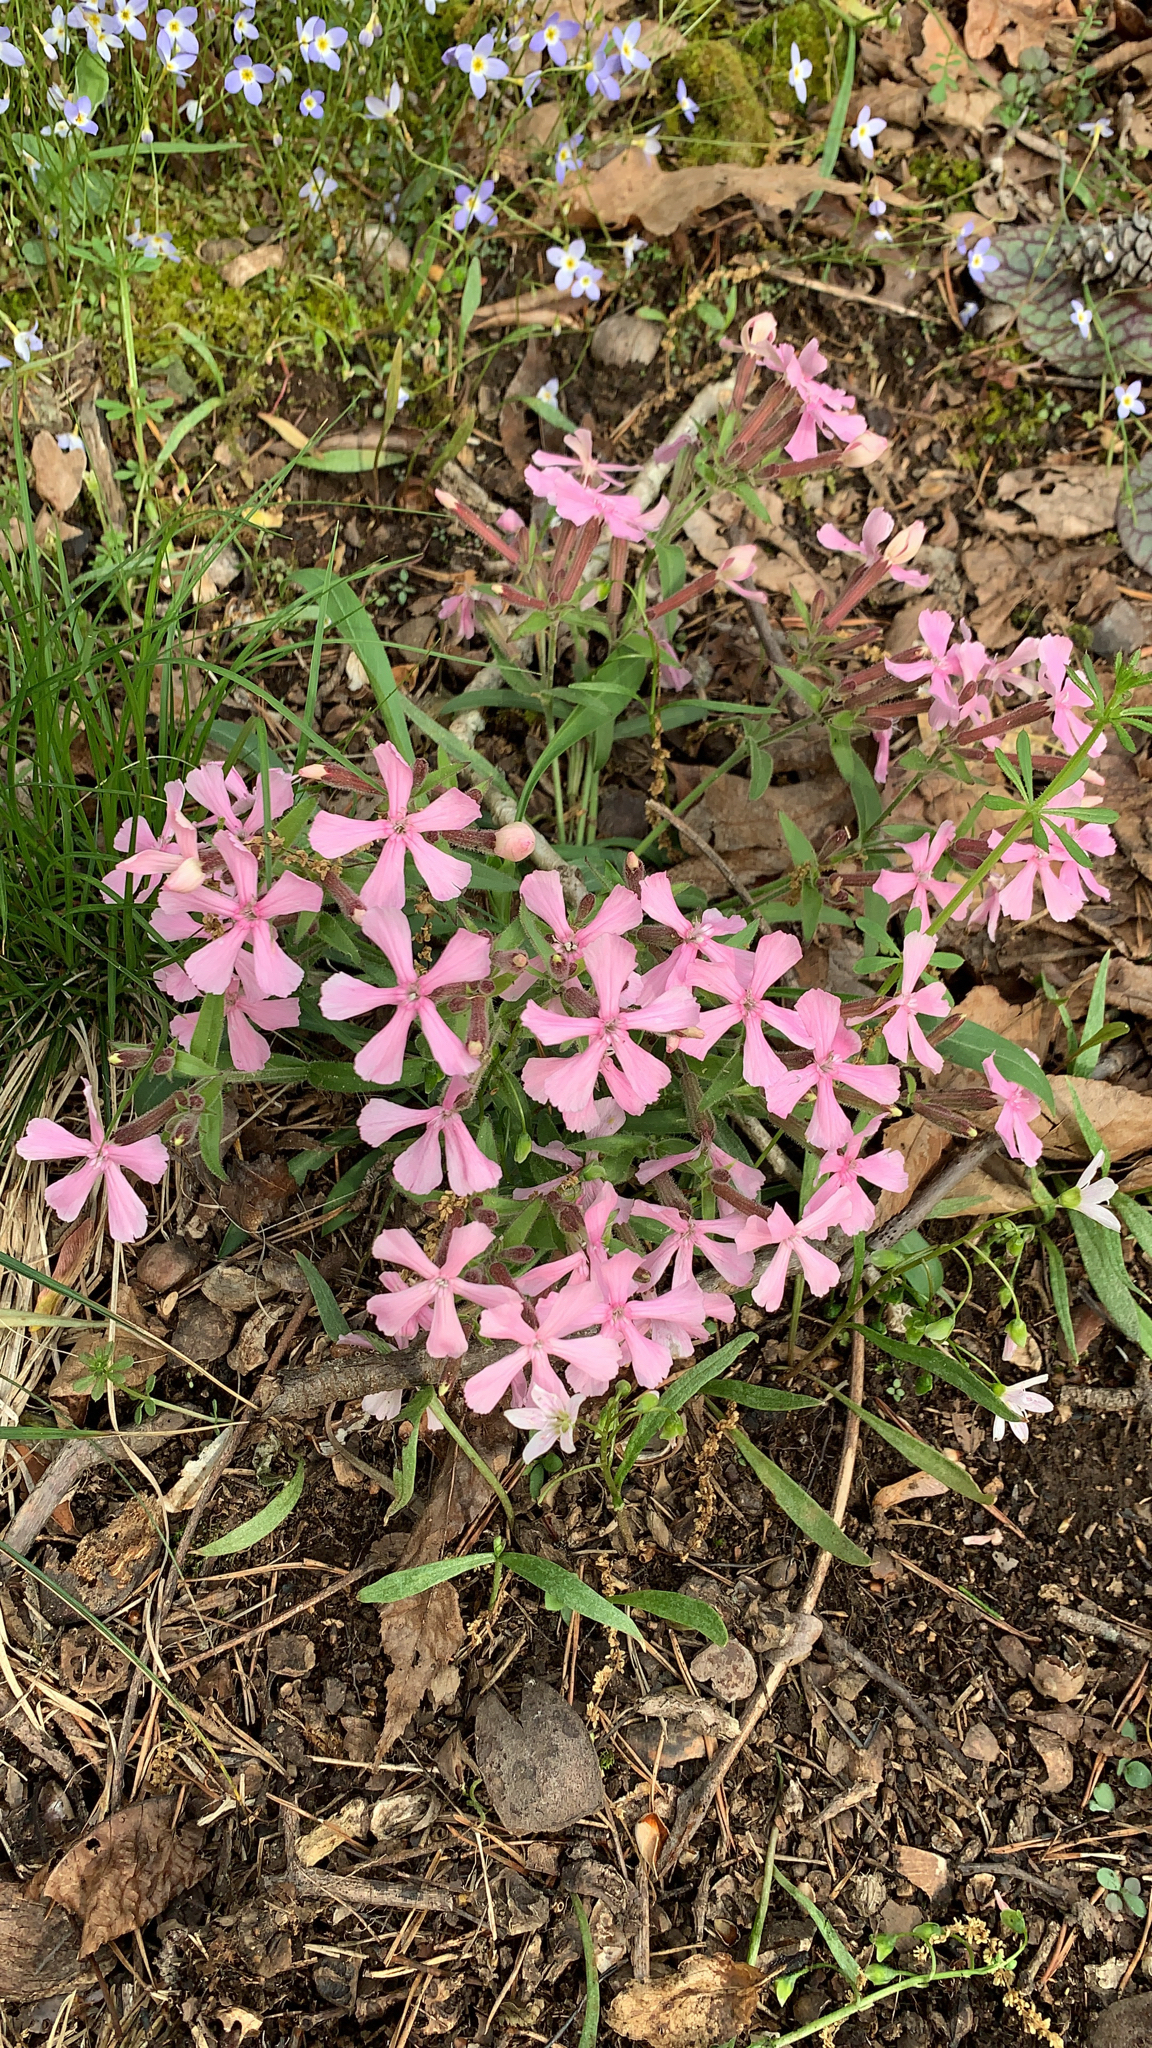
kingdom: Plantae
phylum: Tracheophyta
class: Magnoliopsida
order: Caryophyllales
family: Caryophyllaceae
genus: Silene
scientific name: Silene caroliniana
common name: Sticky catchfly
